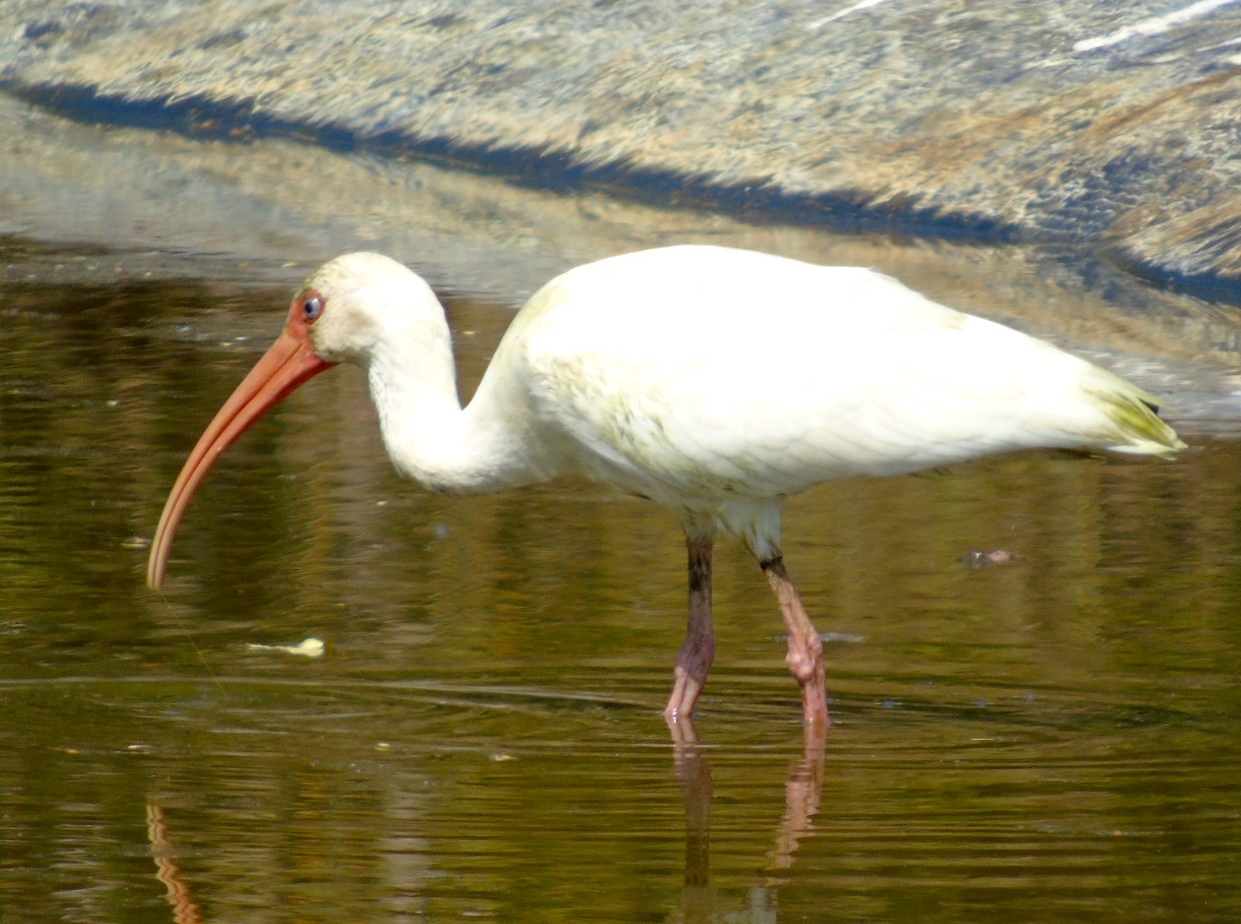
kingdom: Animalia
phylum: Chordata
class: Aves
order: Pelecaniformes
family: Threskiornithidae
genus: Eudocimus
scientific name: Eudocimus albus
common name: White ibis
